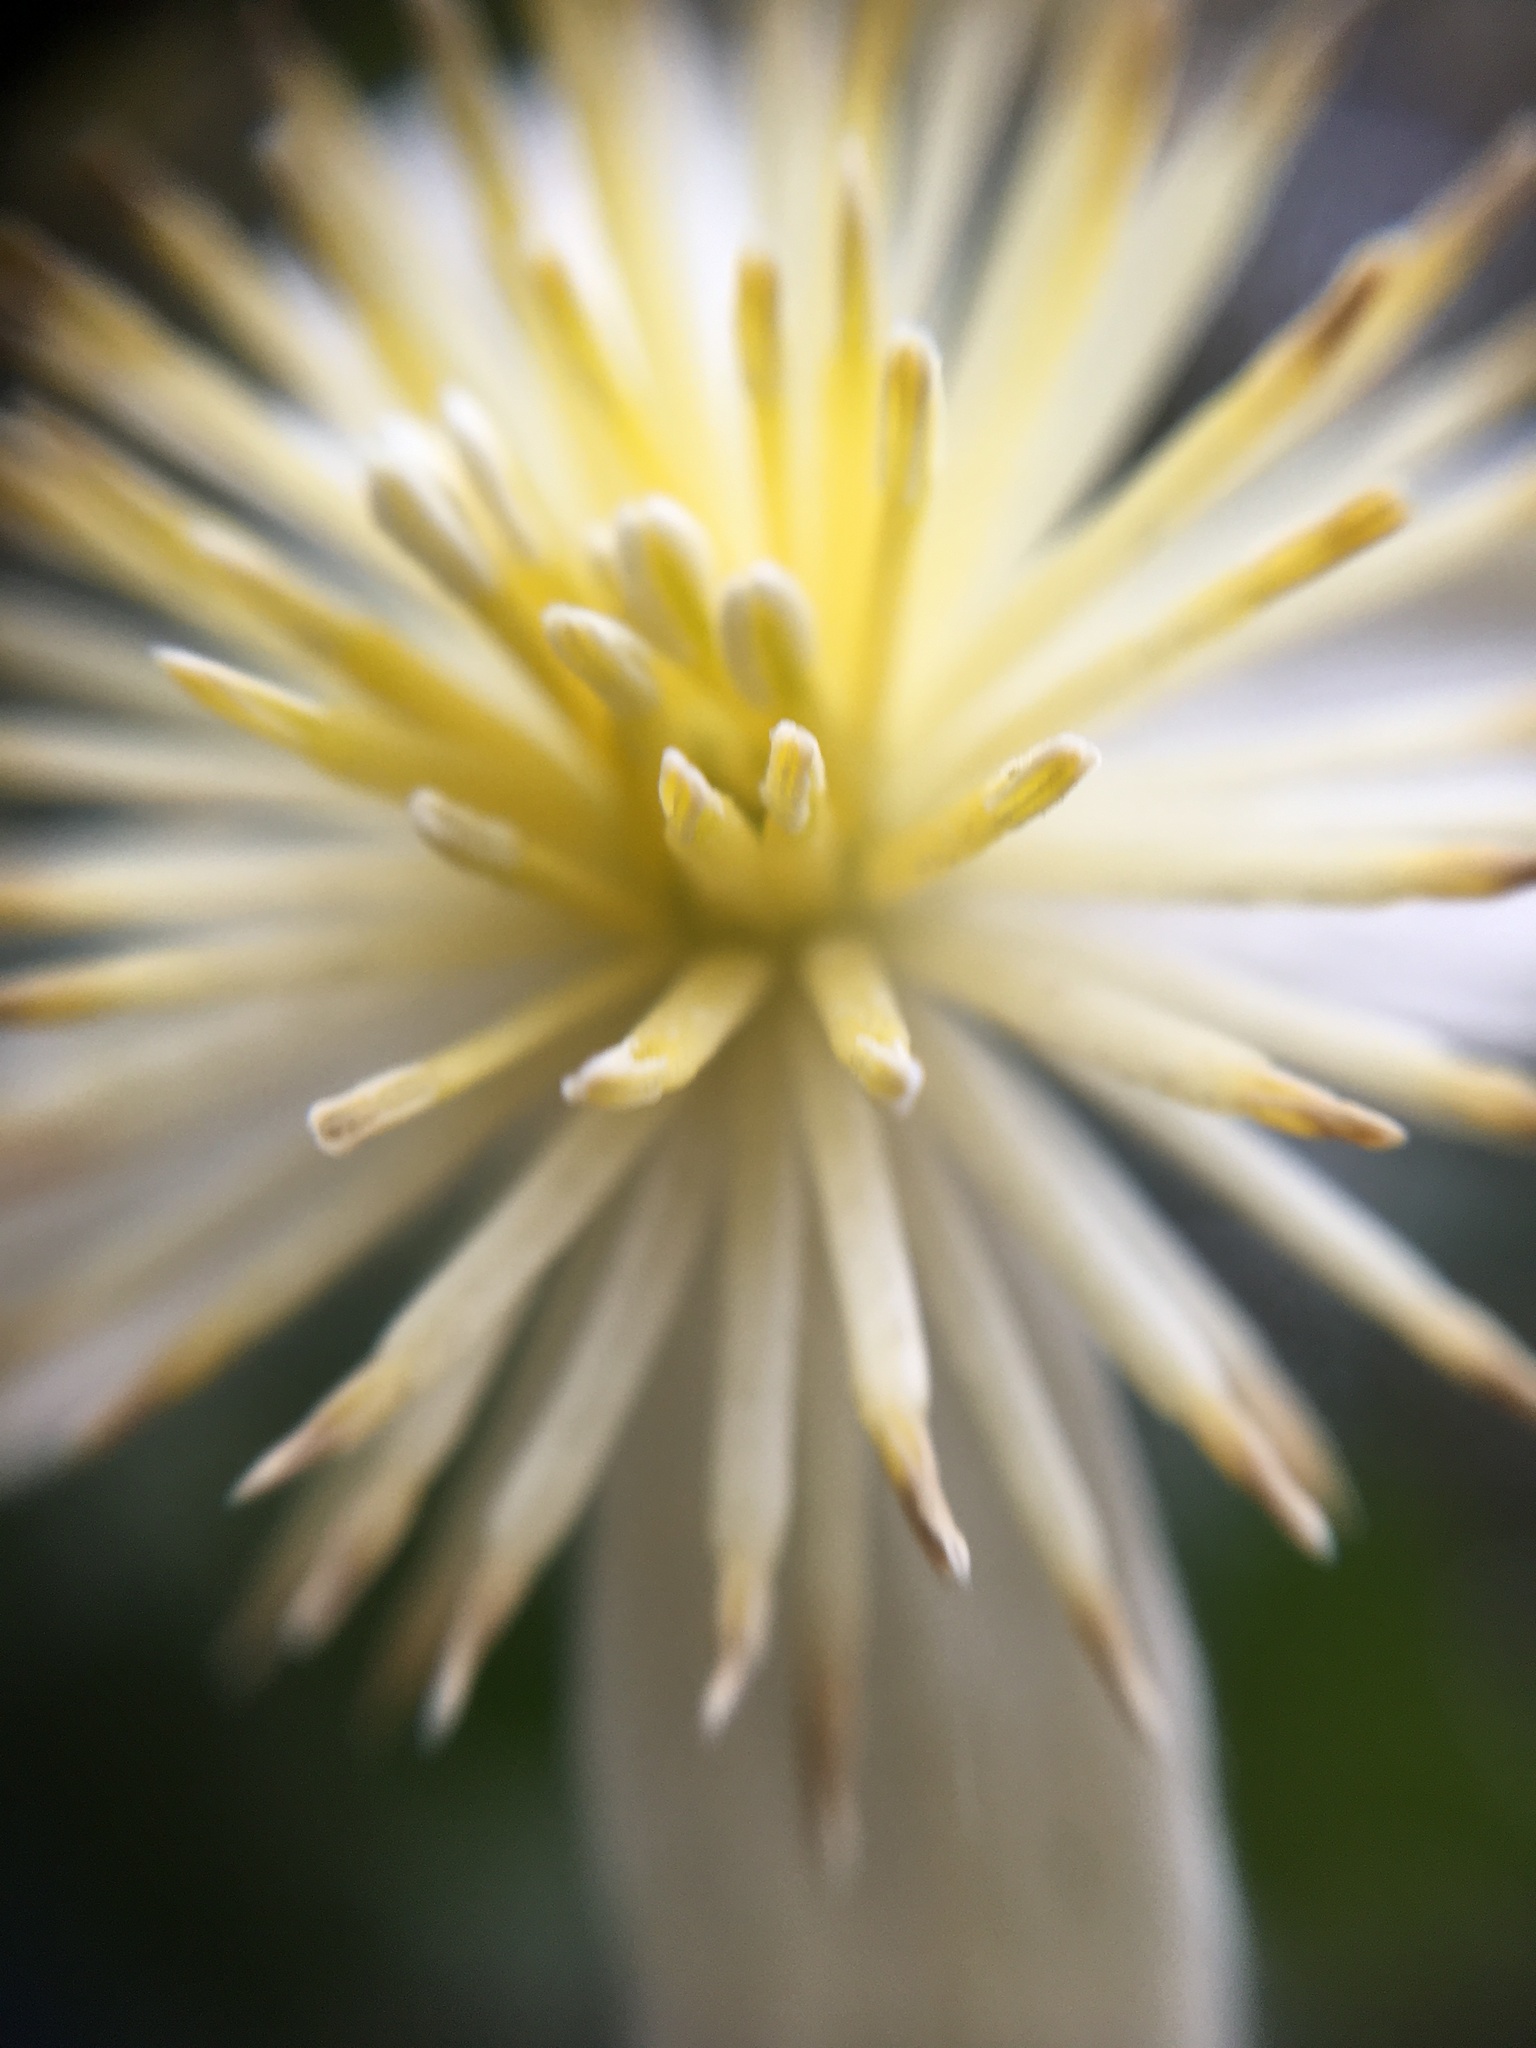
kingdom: Plantae
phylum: Tracheophyta
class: Magnoliopsida
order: Ranunculales
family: Ranunculaceae
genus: Clematis
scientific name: Clematis lasiantha
